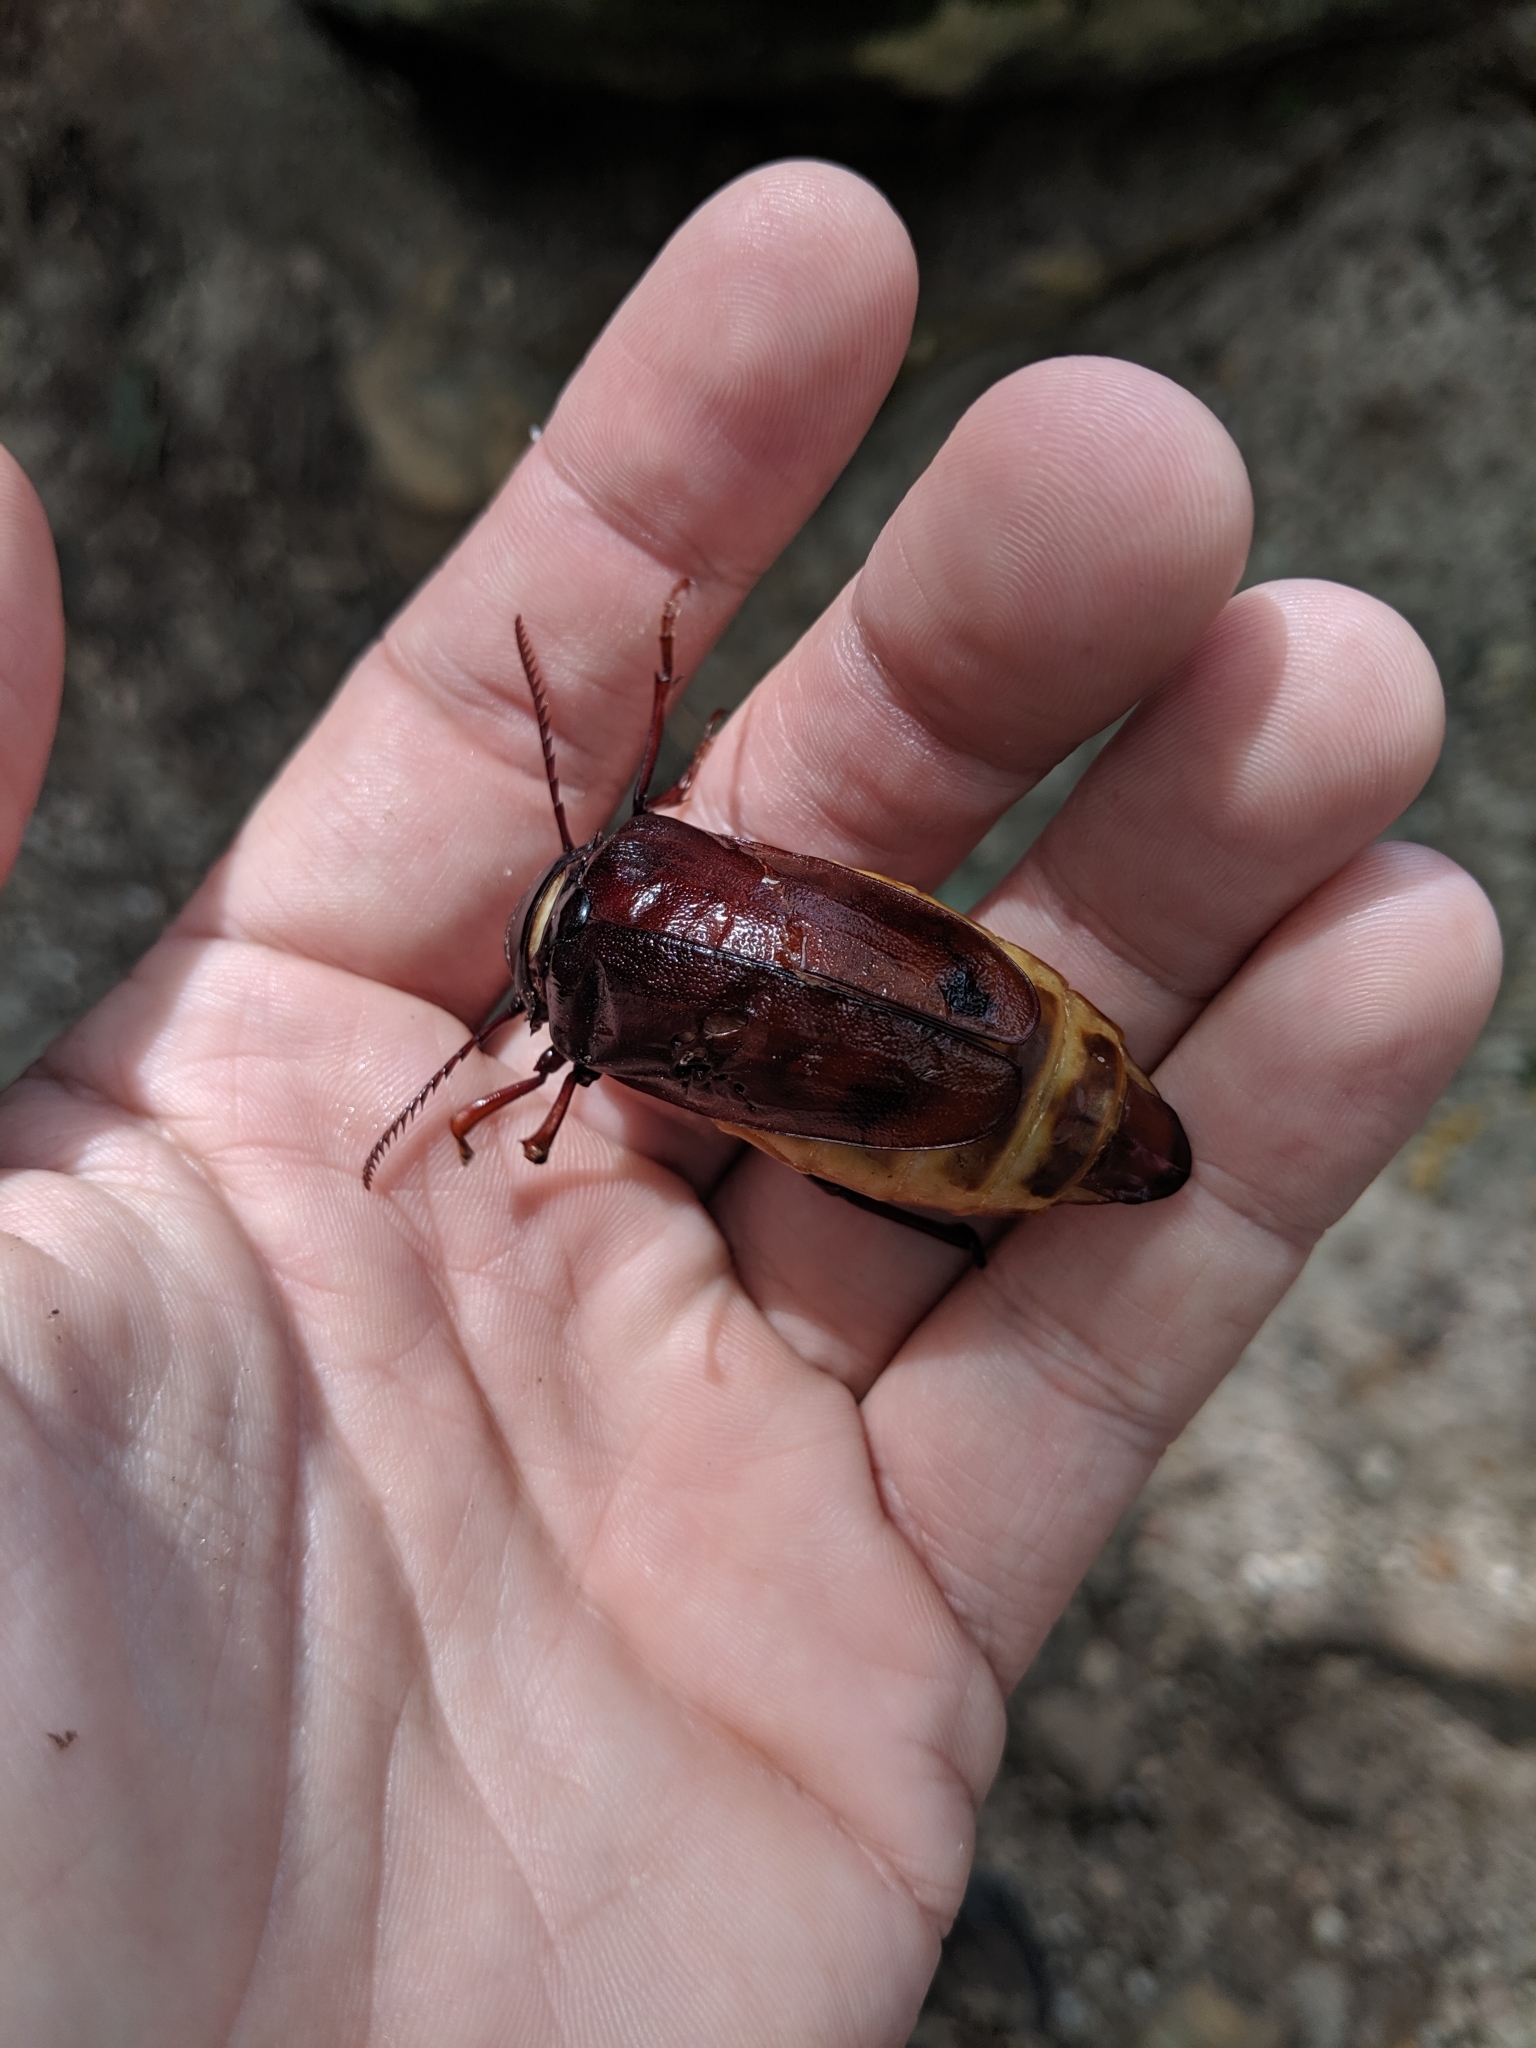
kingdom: Animalia
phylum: Arthropoda
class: Insecta
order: Coleoptera
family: Cerambycidae
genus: Prionus
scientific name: Prionus imbricornis
